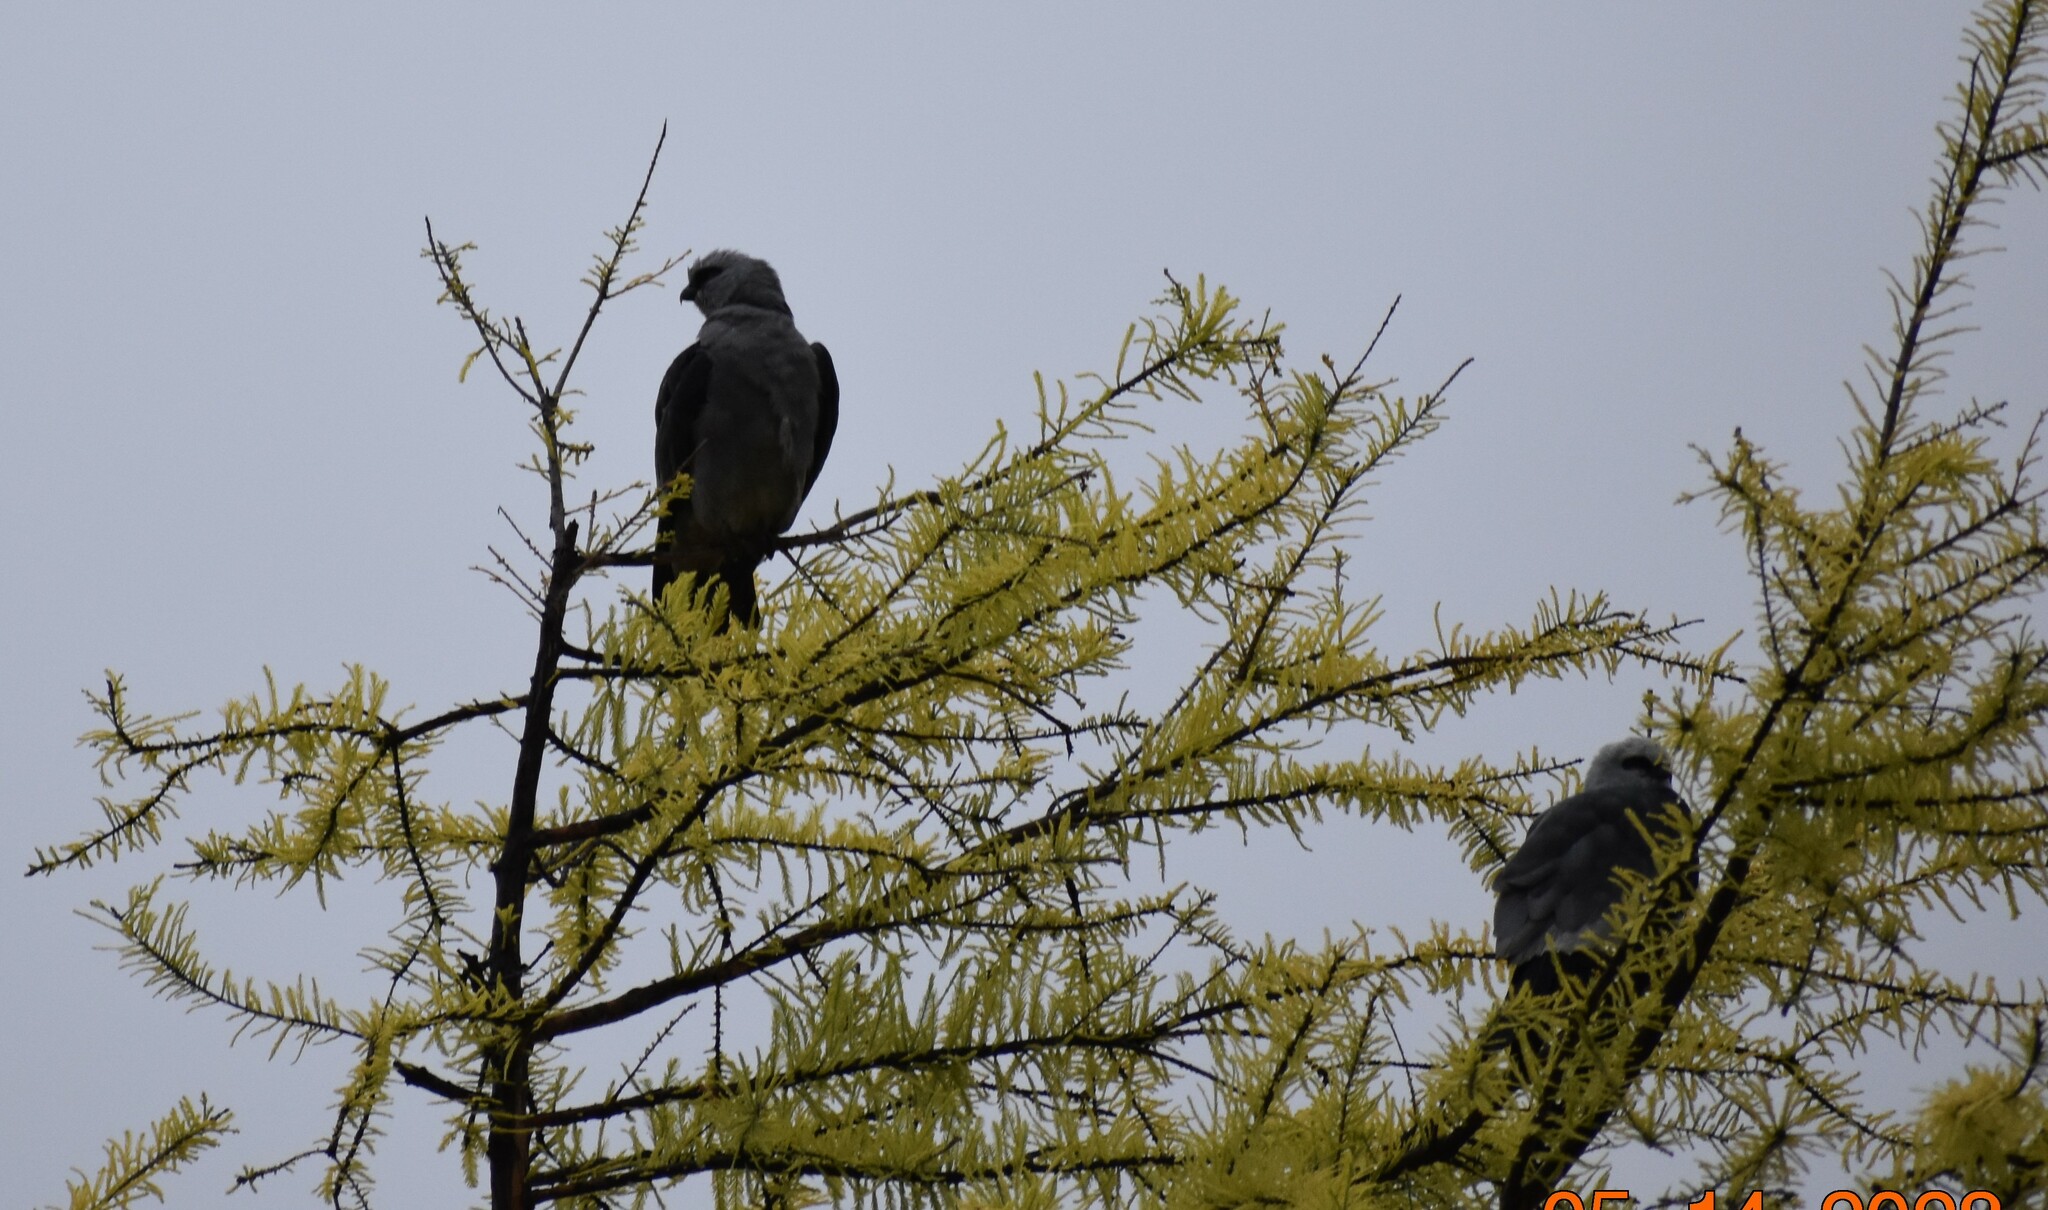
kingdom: Animalia
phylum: Chordata
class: Aves
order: Accipitriformes
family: Accipitridae
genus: Ictinia
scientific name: Ictinia mississippiensis
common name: Mississippi kite
